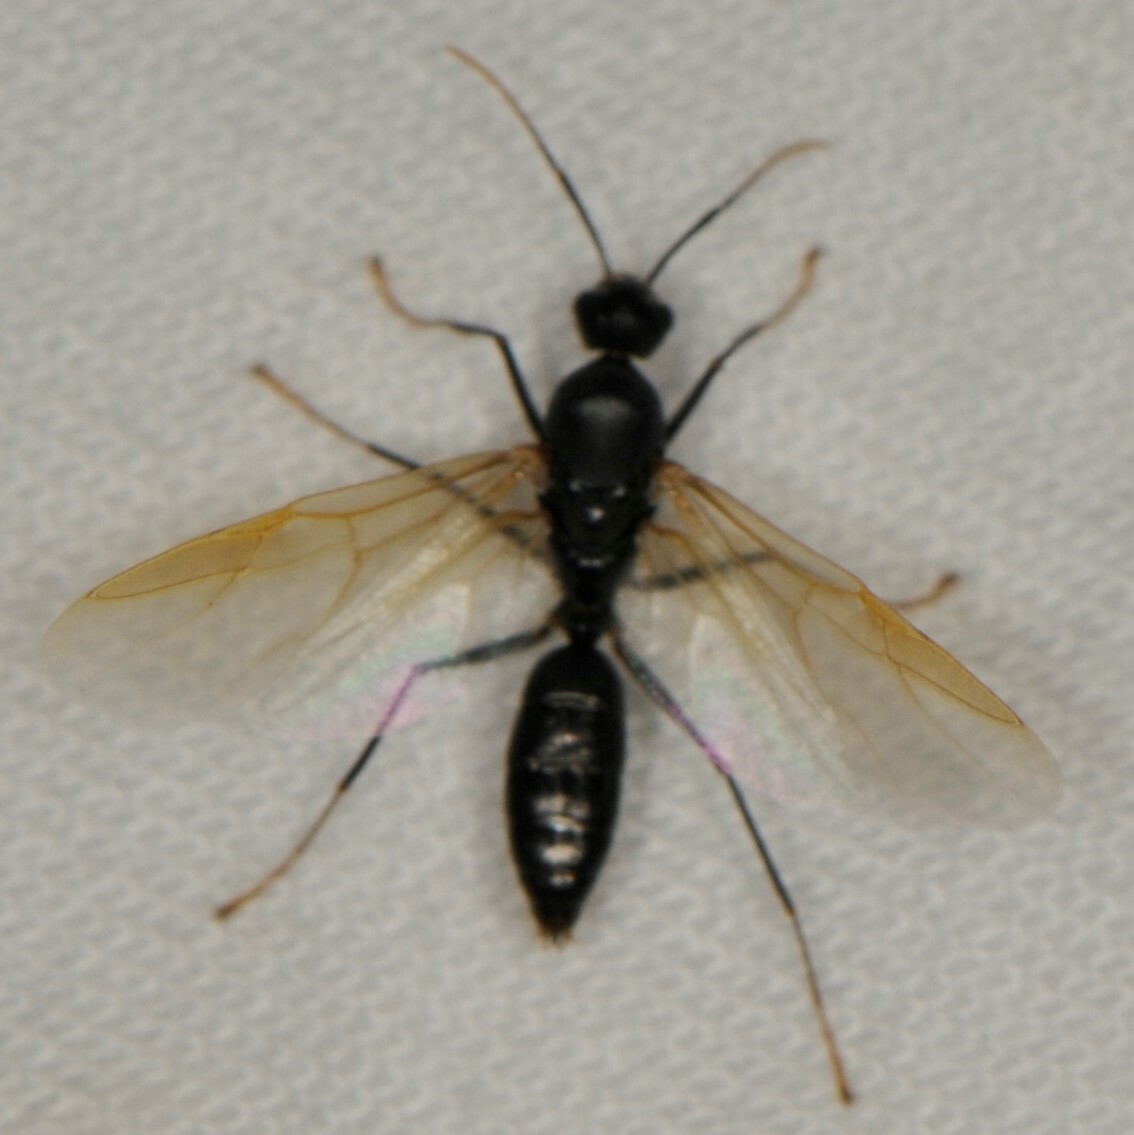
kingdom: Animalia
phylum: Arthropoda
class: Insecta
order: Hymenoptera
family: Formicidae
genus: Camponotus
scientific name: Camponotus
